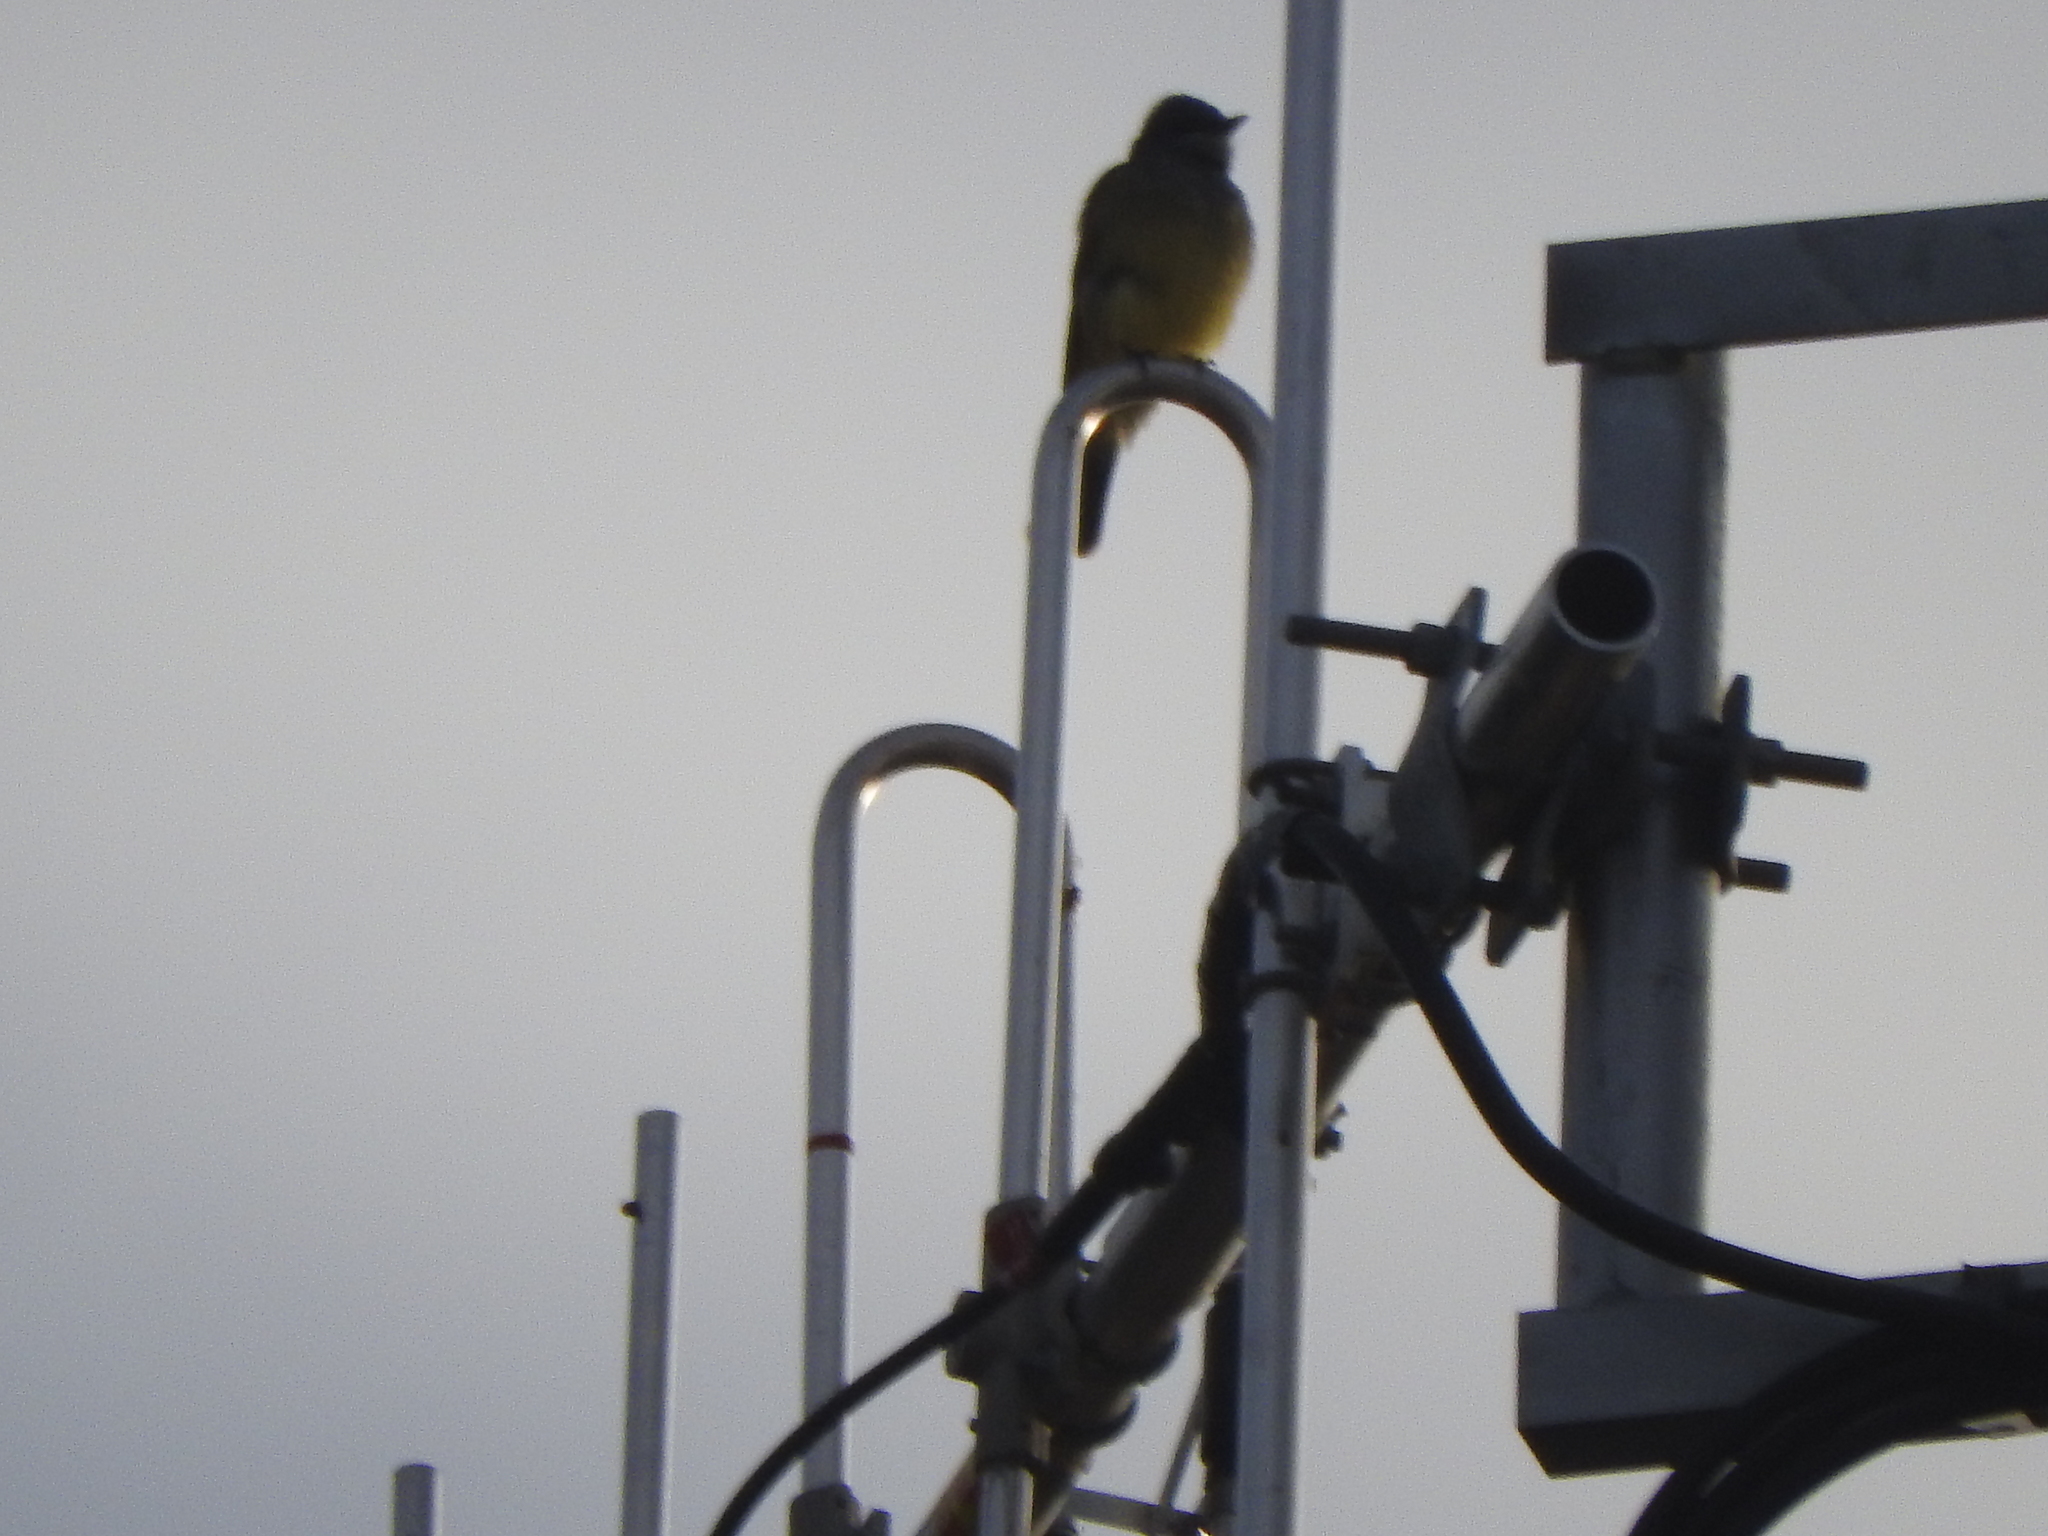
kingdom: Animalia
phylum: Chordata
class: Aves
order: Passeriformes
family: Tyrannidae
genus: Tyrannus
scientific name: Tyrannus vociferans
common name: Cassin's kingbird
